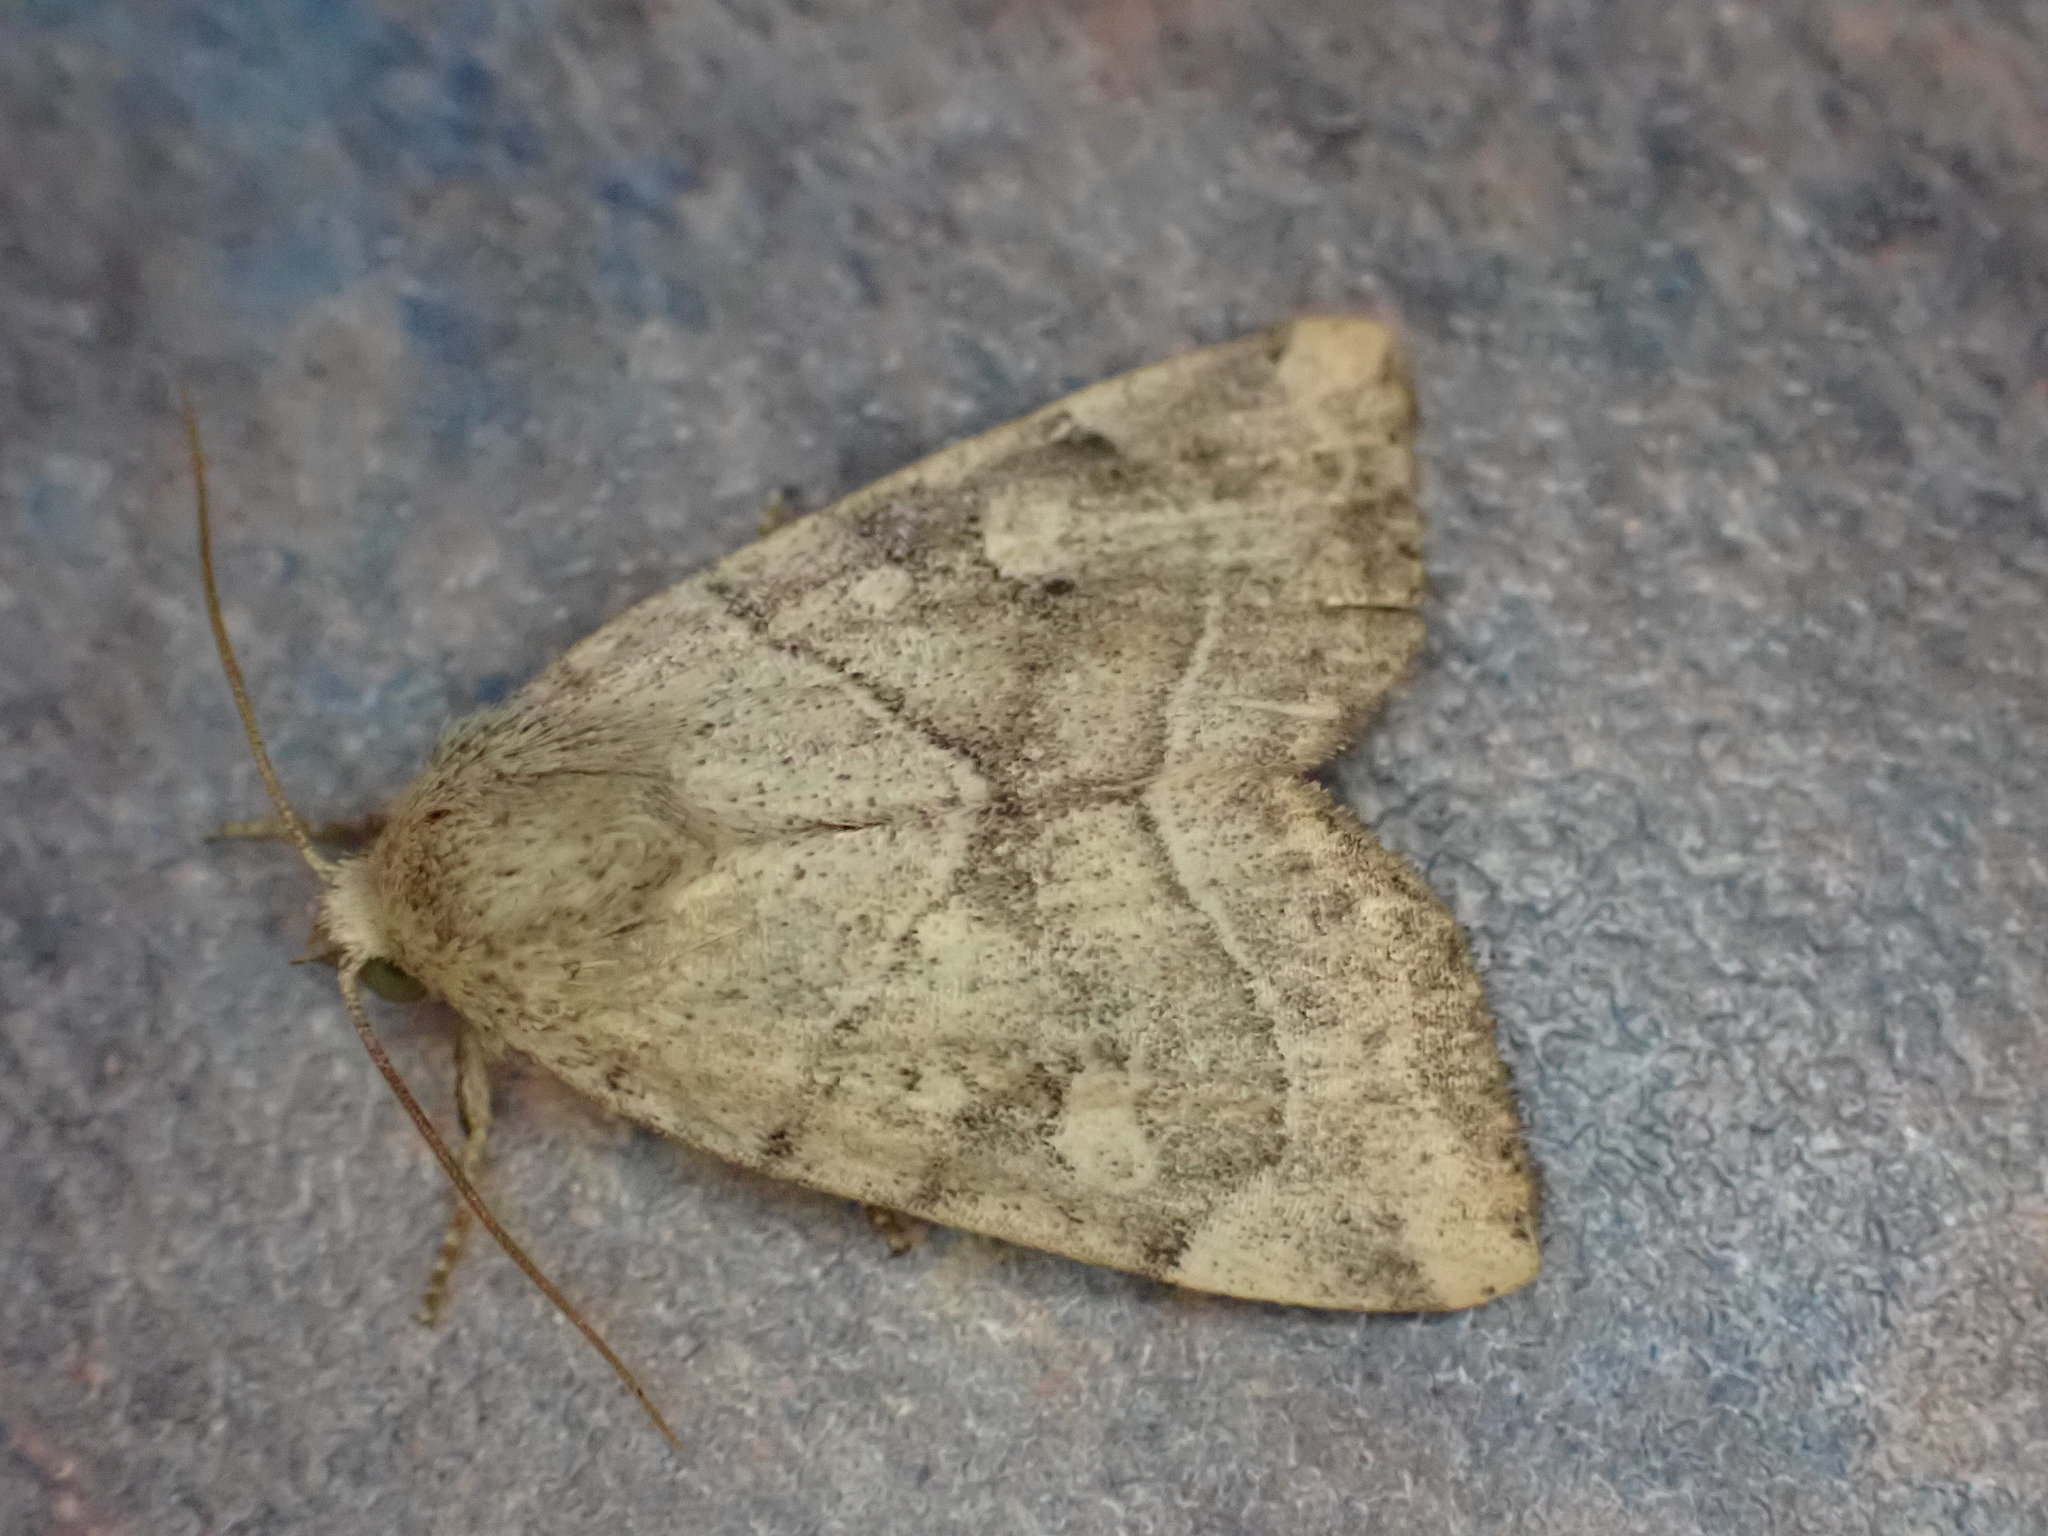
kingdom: Animalia
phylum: Arthropoda
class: Insecta
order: Lepidoptera
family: Noctuidae
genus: Cosmia
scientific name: Cosmia trapezina
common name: Dun-bar
